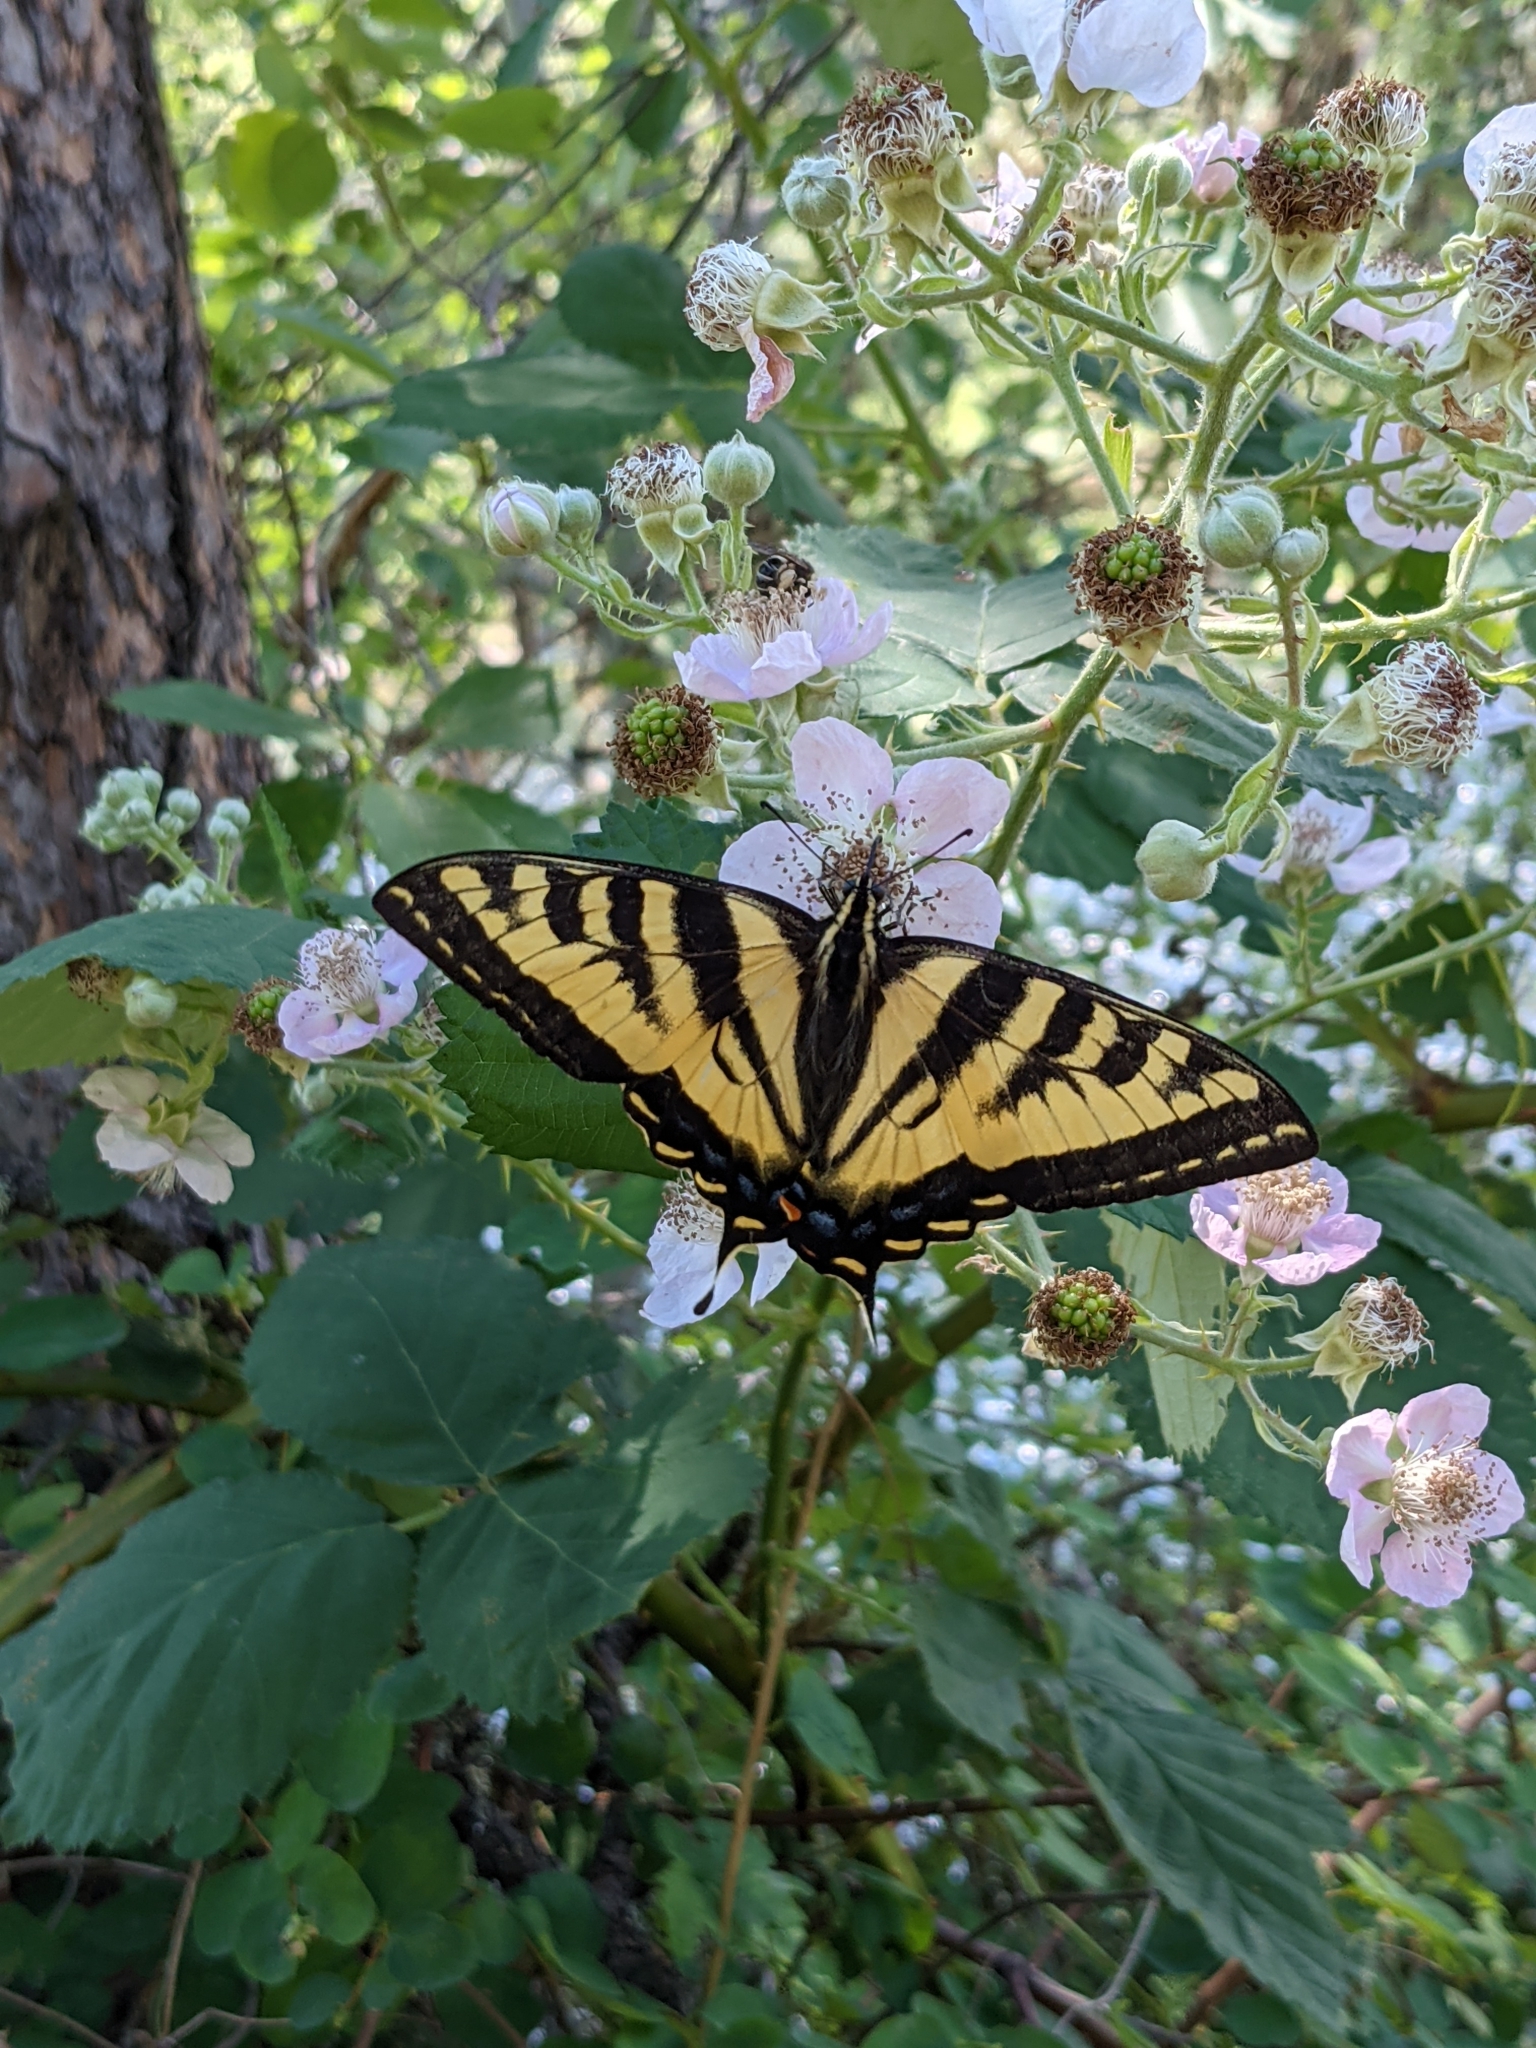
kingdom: Animalia
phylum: Arthropoda
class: Insecta
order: Lepidoptera
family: Papilionidae
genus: Papilio
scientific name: Papilio rutulus
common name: Western tiger swallowtail
